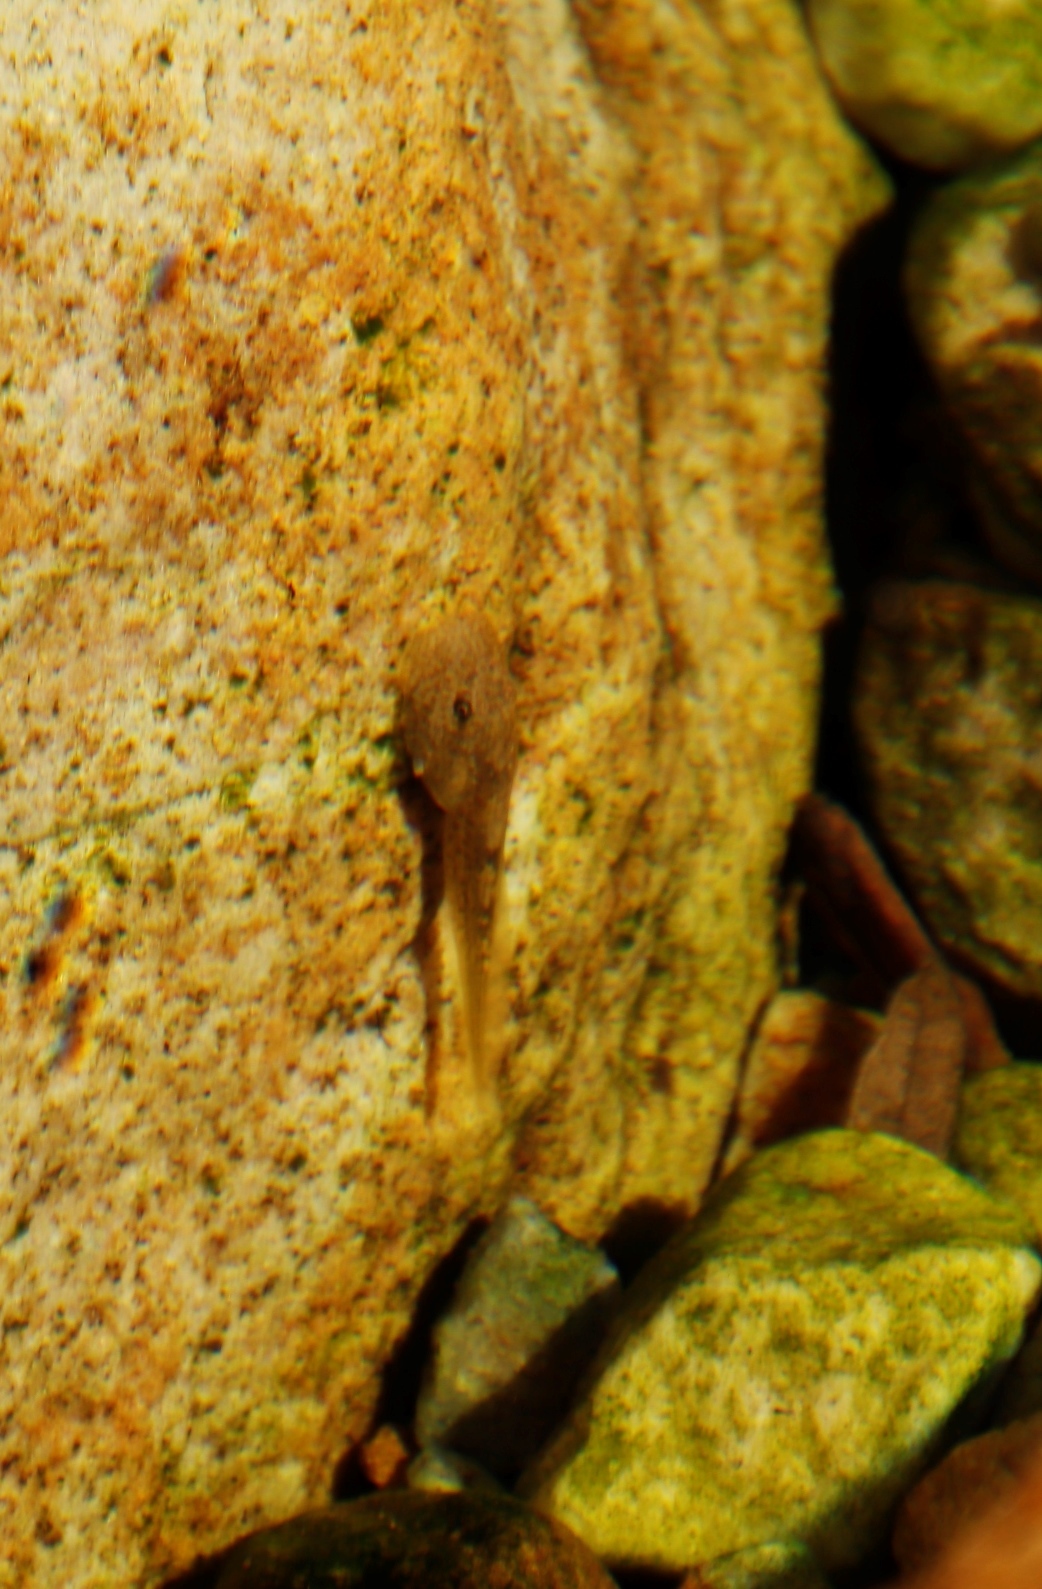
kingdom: Animalia
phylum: Chordata
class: Amphibia
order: Anura
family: Heleophrynidae
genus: Heleophryne
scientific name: Heleophryne purcelli
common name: Purcell's ghost frog
